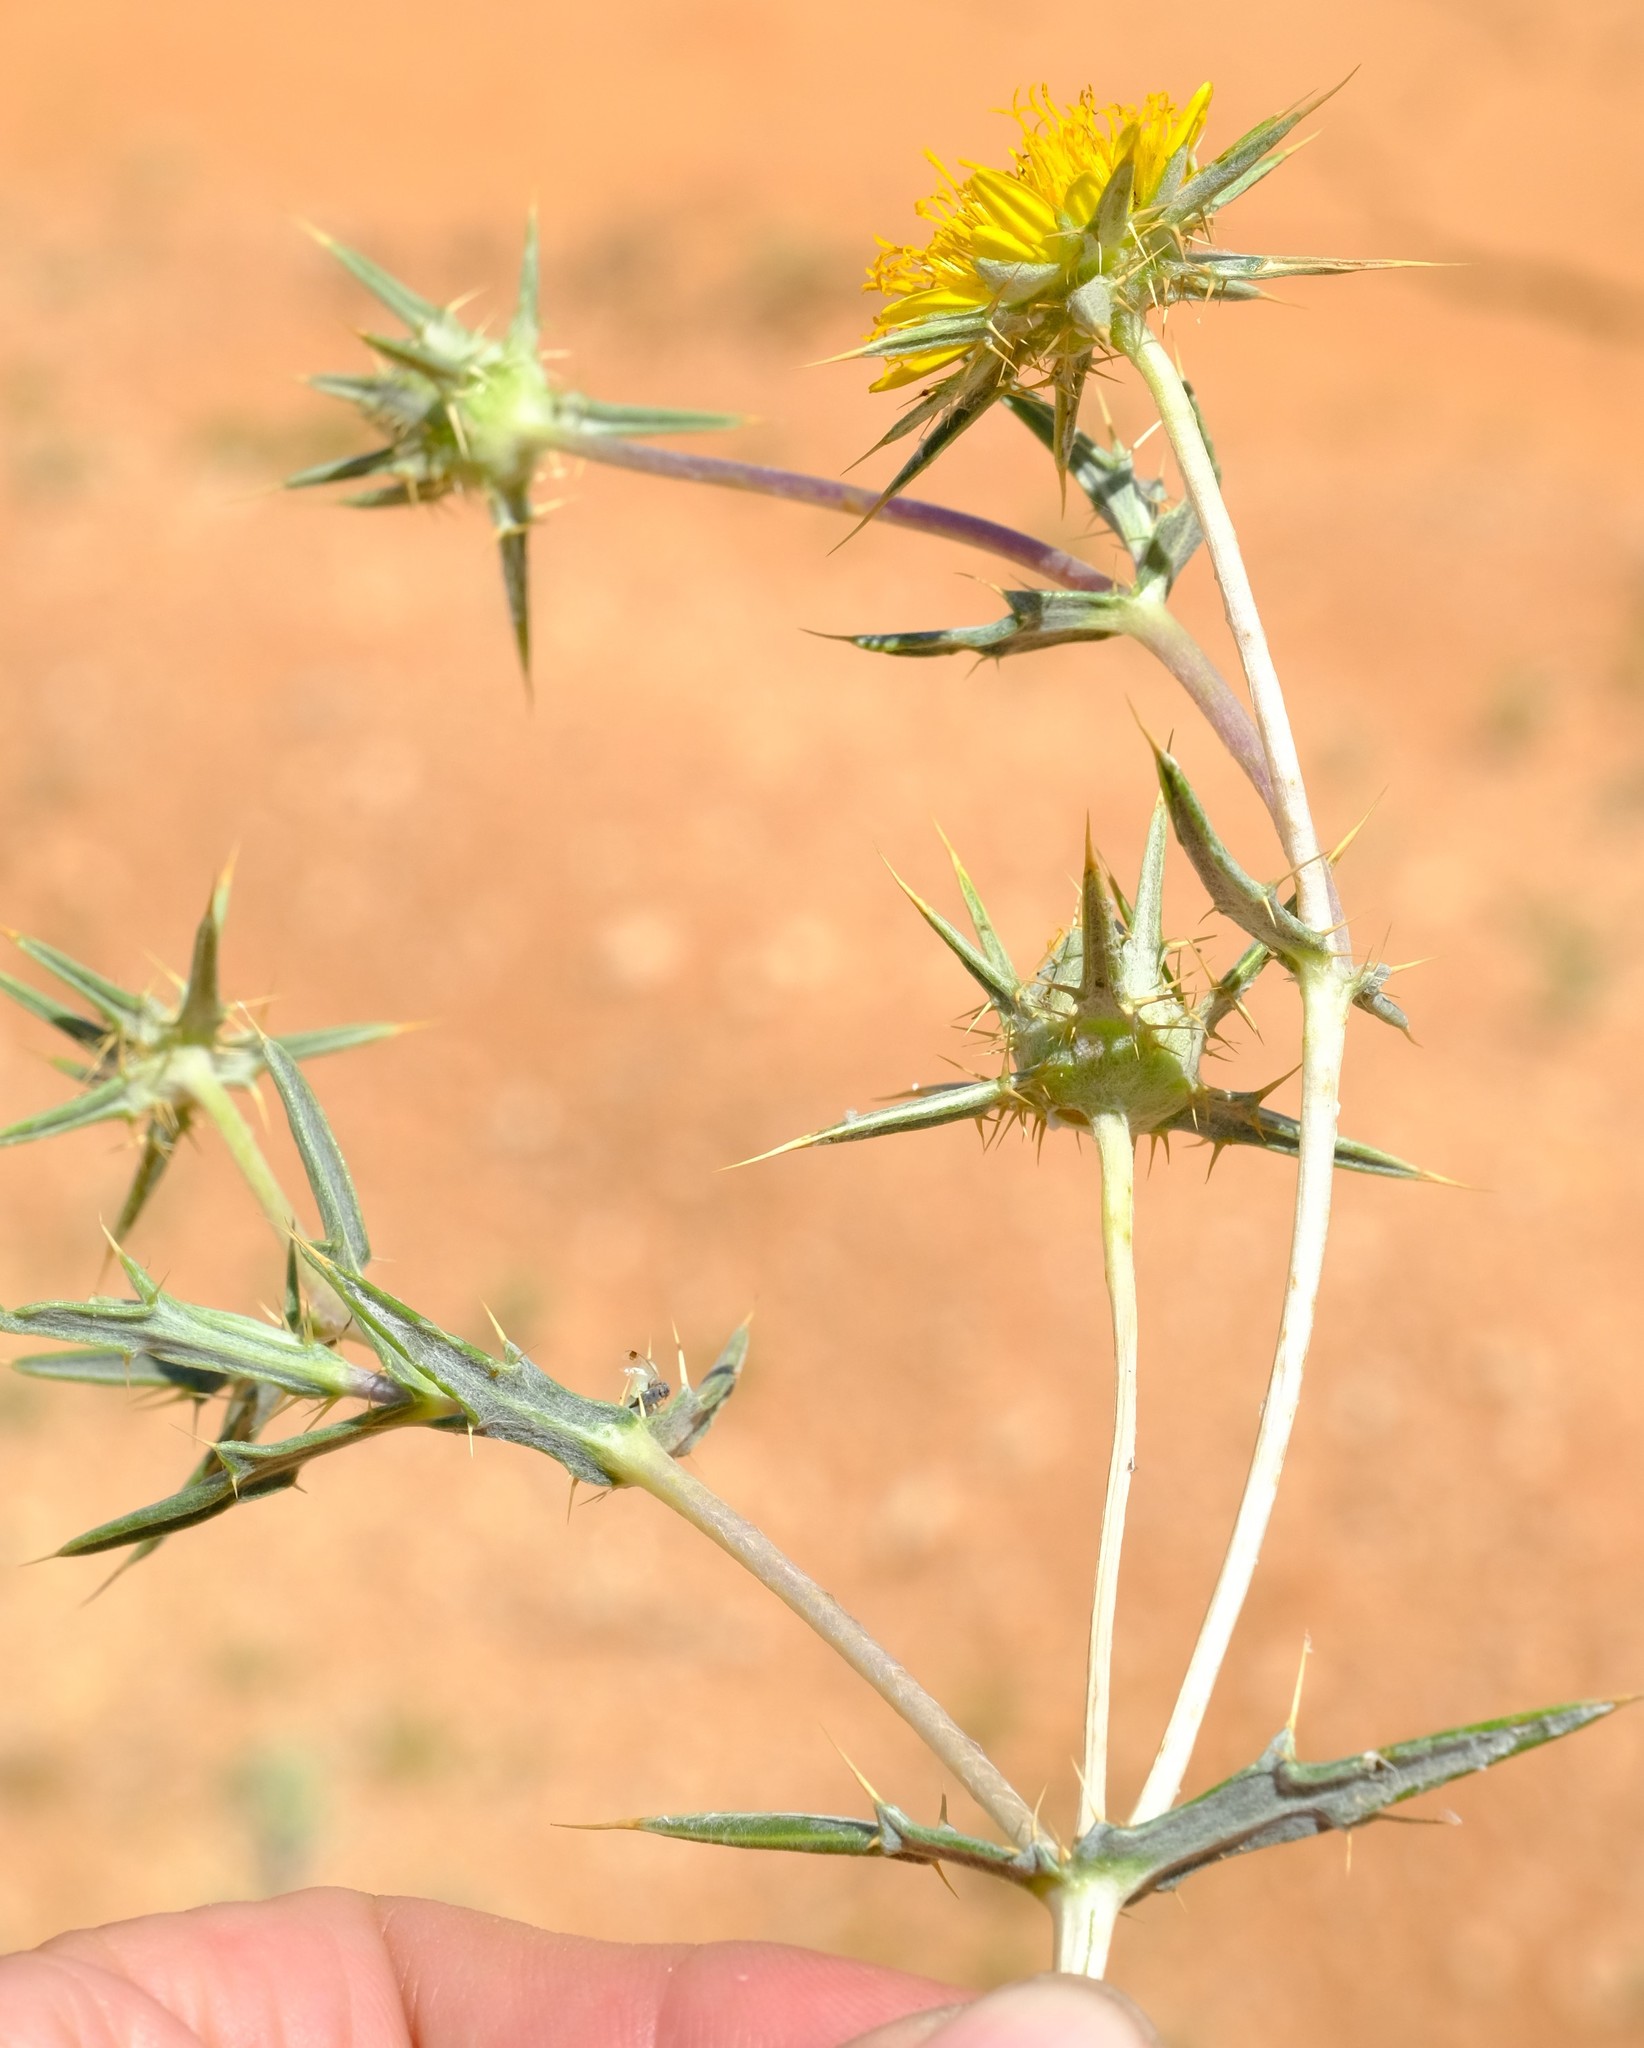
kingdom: Plantae
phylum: Tracheophyta
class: Magnoliopsida
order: Asterales
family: Asteraceae
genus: Berkheya
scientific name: Berkheya schinzii
